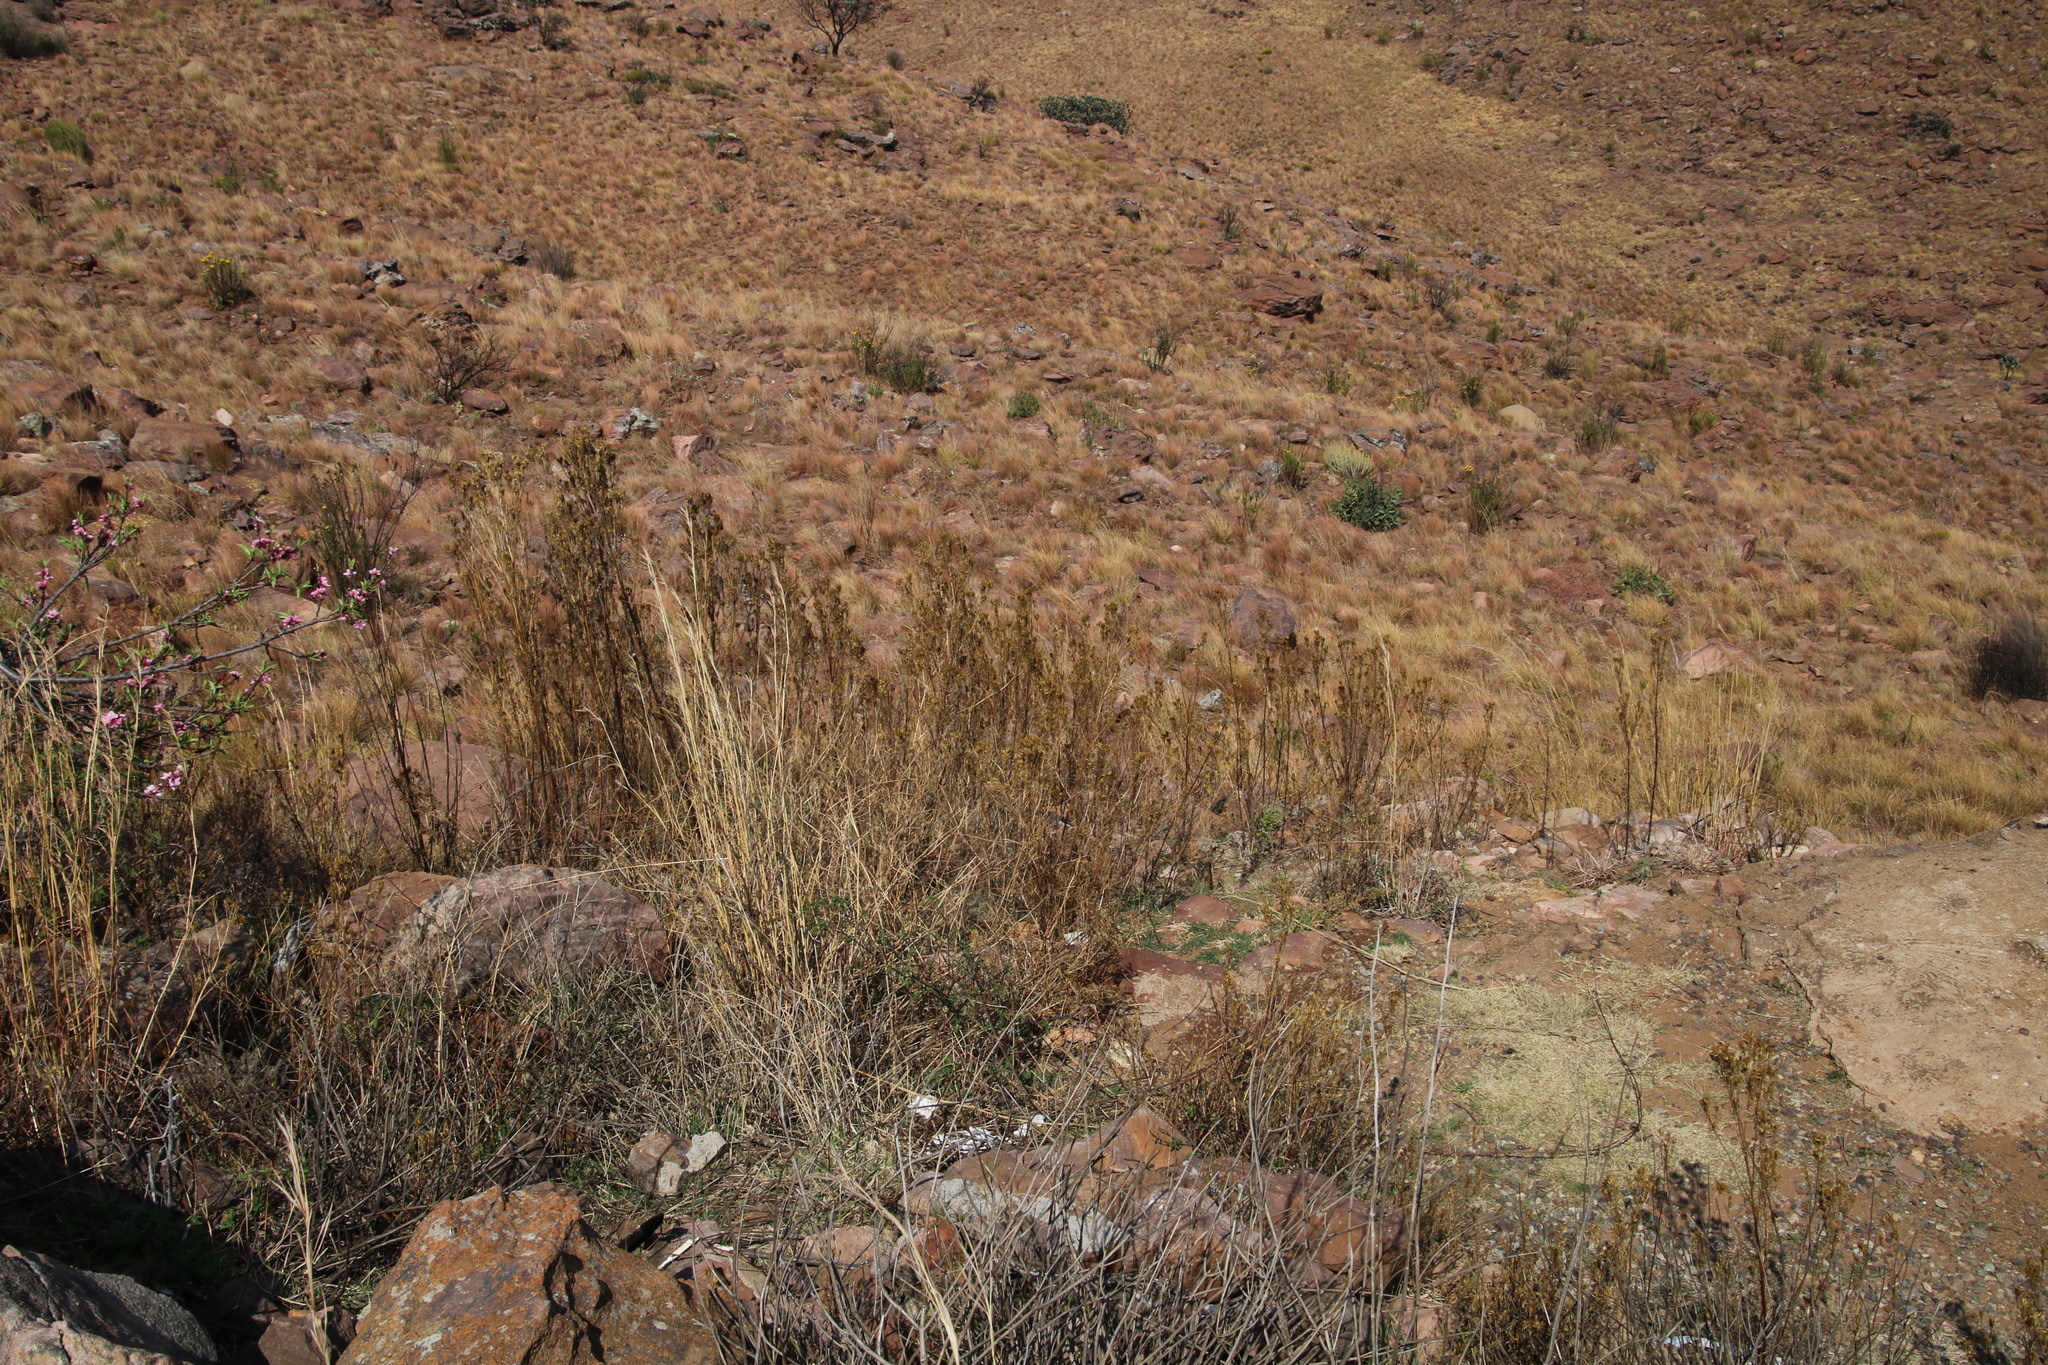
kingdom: Plantae
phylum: Tracheophyta
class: Magnoliopsida
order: Asterales
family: Asteraceae
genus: Tagetes
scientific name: Tagetes minuta
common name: Muster john henry
